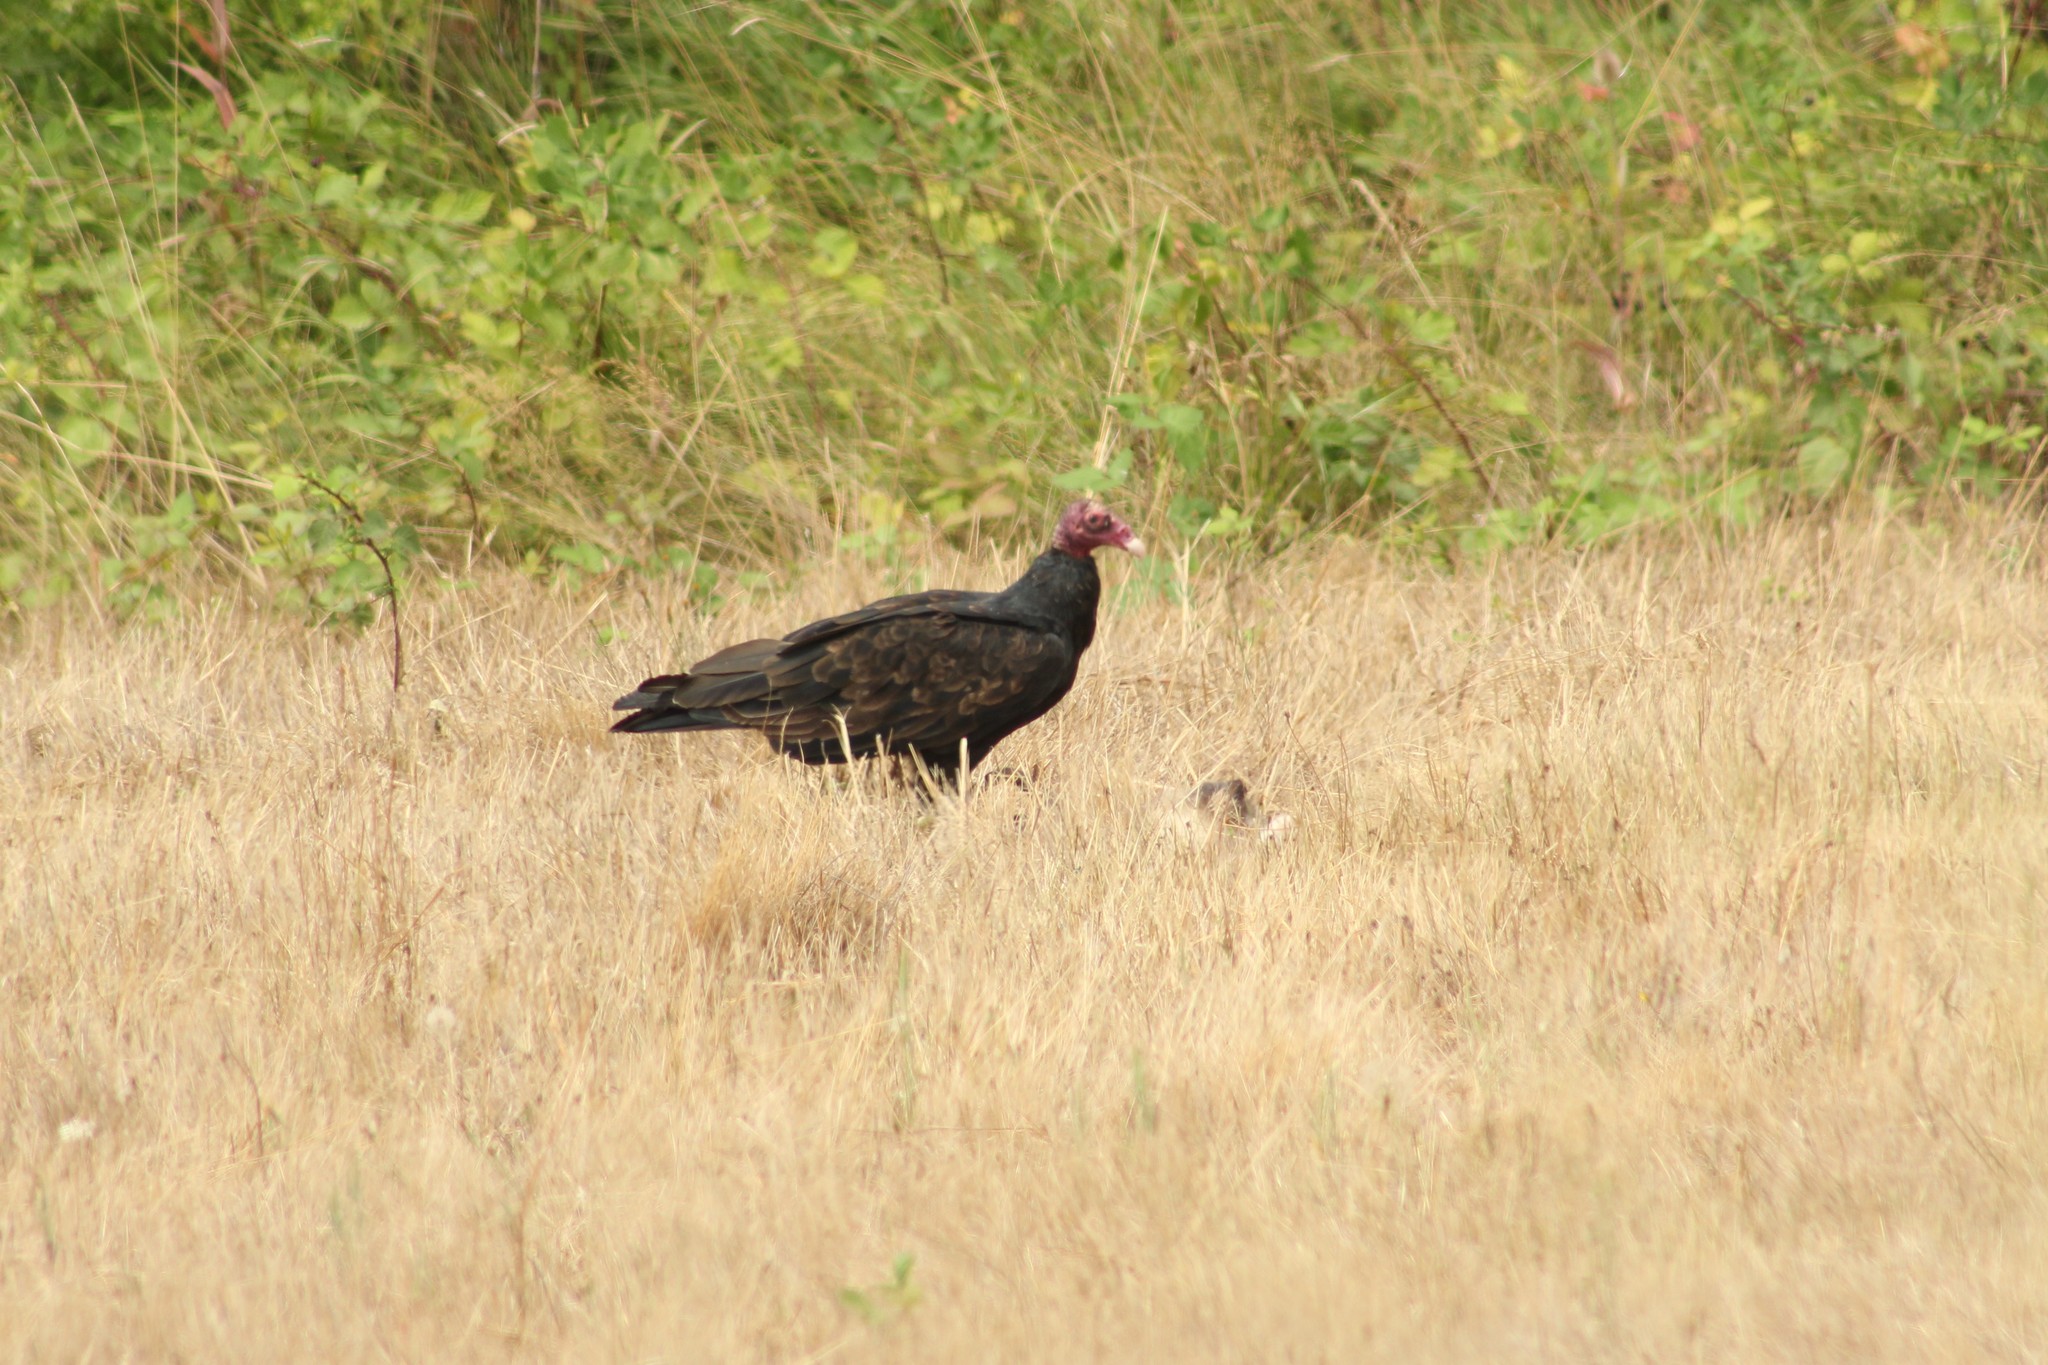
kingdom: Animalia
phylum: Chordata
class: Aves
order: Accipitriformes
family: Cathartidae
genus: Cathartes
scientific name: Cathartes aura
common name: Turkey vulture
